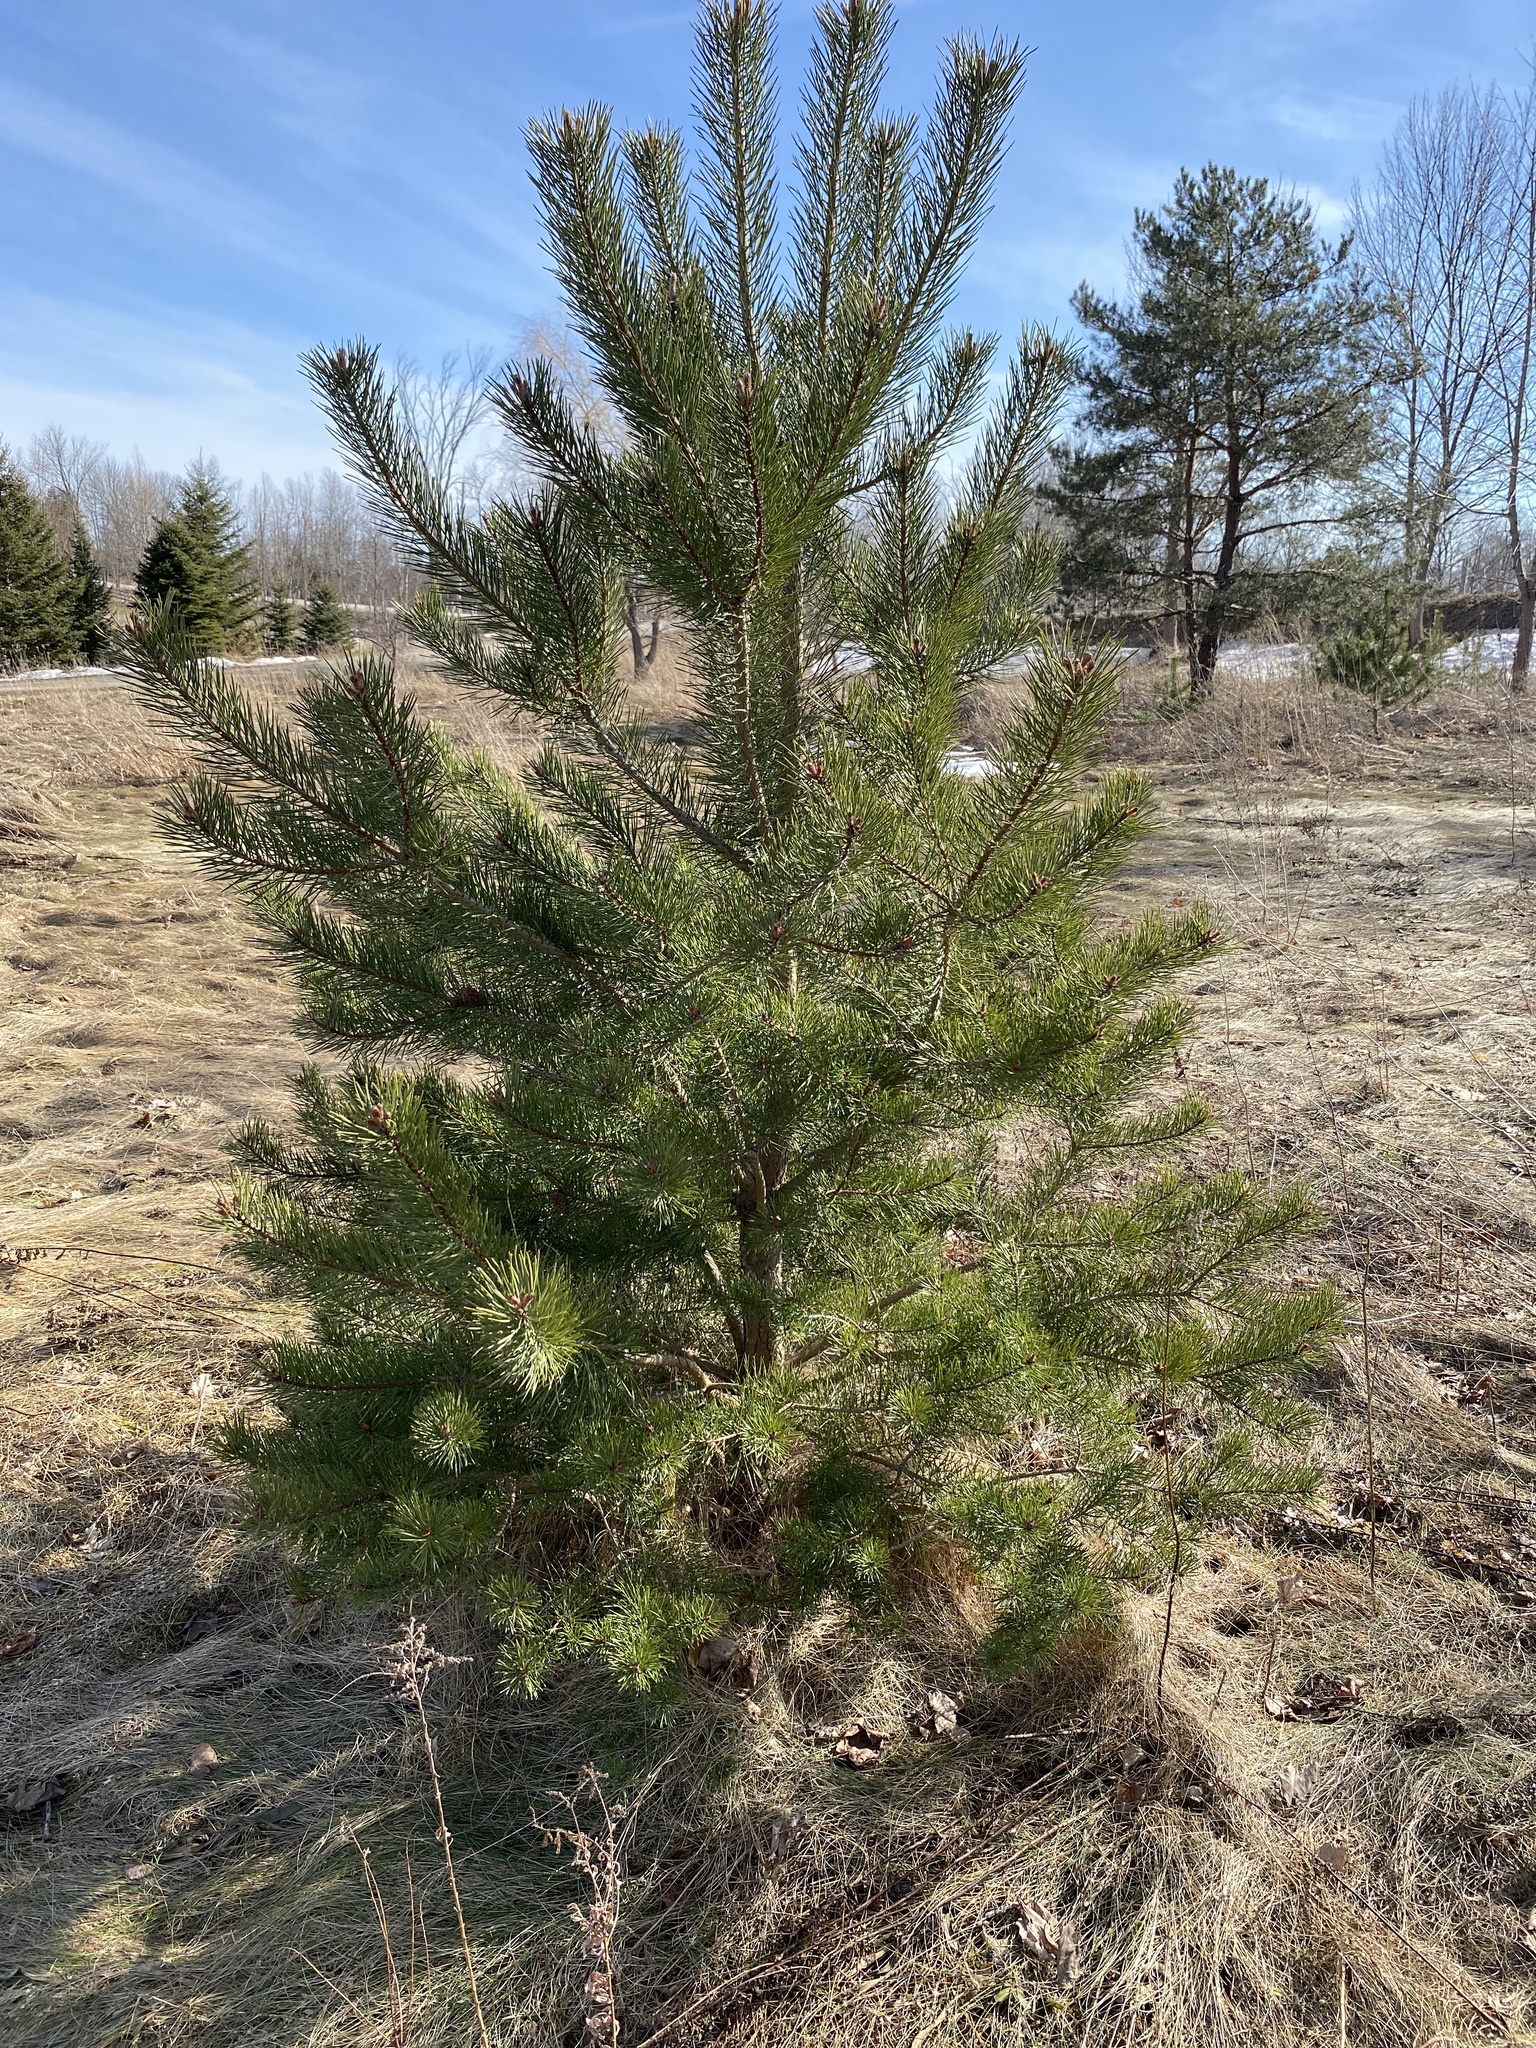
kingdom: Plantae
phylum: Tracheophyta
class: Pinopsida
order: Pinales
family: Pinaceae
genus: Pinus
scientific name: Pinus sylvestris
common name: Scots pine
